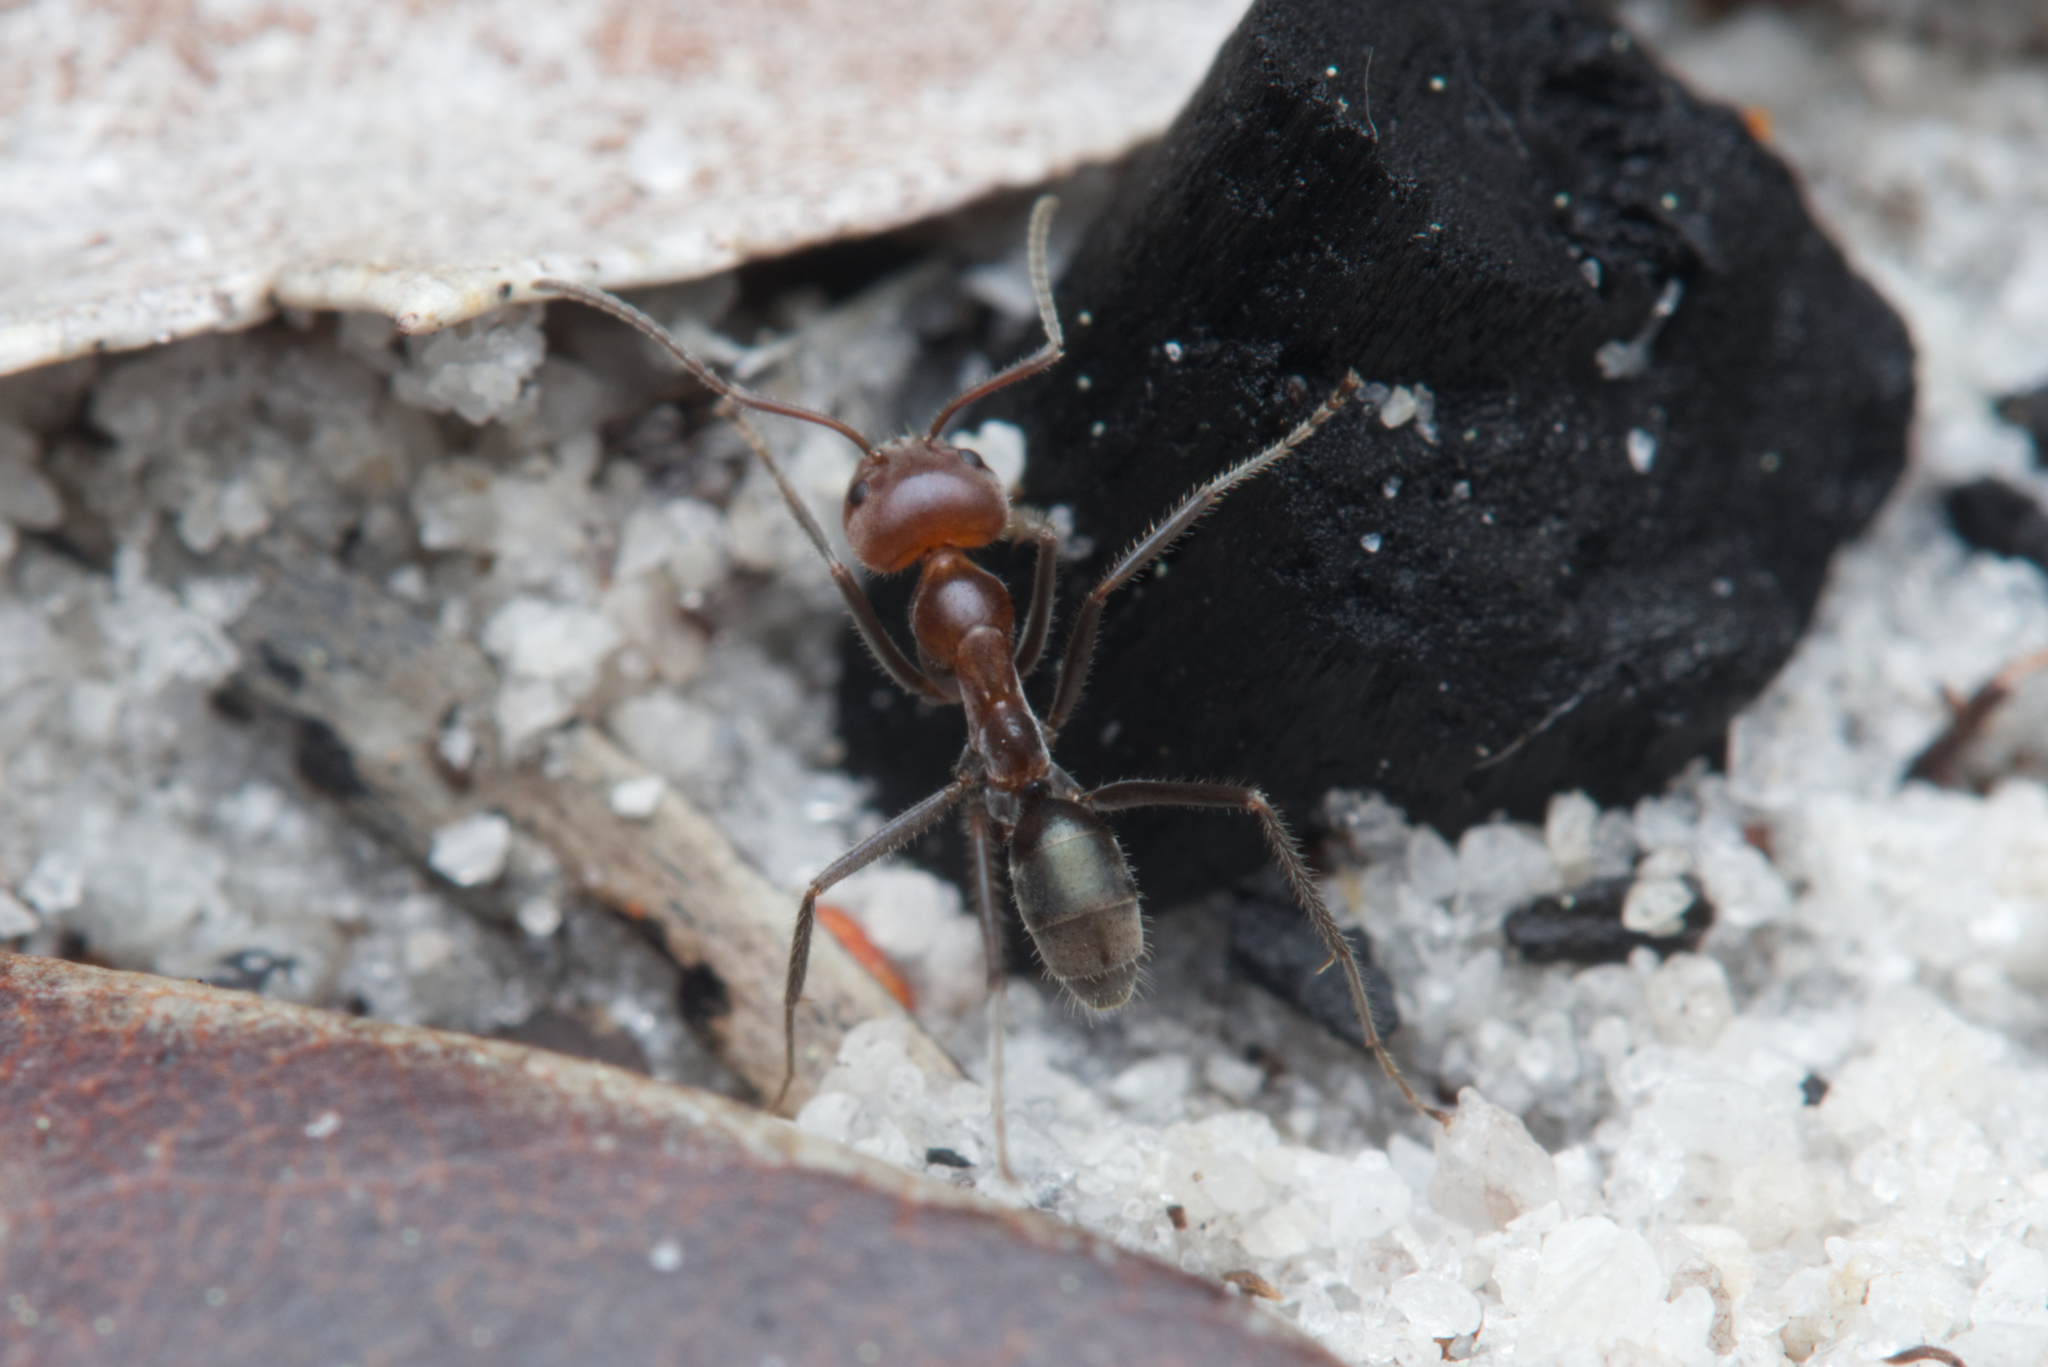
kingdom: Animalia
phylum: Arthropoda
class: Insecta
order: Hymenoptera
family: Formicidae
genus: Iridomyrmex
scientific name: Iridomyrmex discors
